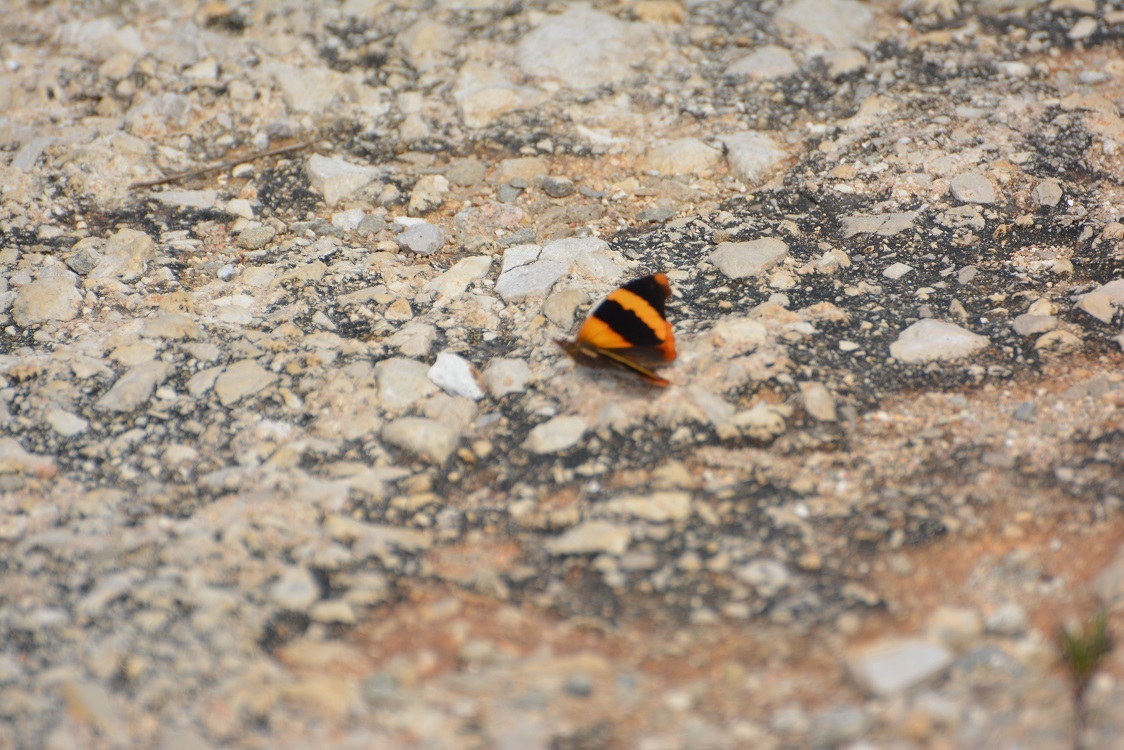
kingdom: Animalia
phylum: Arthropoda
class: Insecta
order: Lepidoptera
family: Nymphalidae
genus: Epiphile
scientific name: Epiphile adrasta
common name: Common banner
